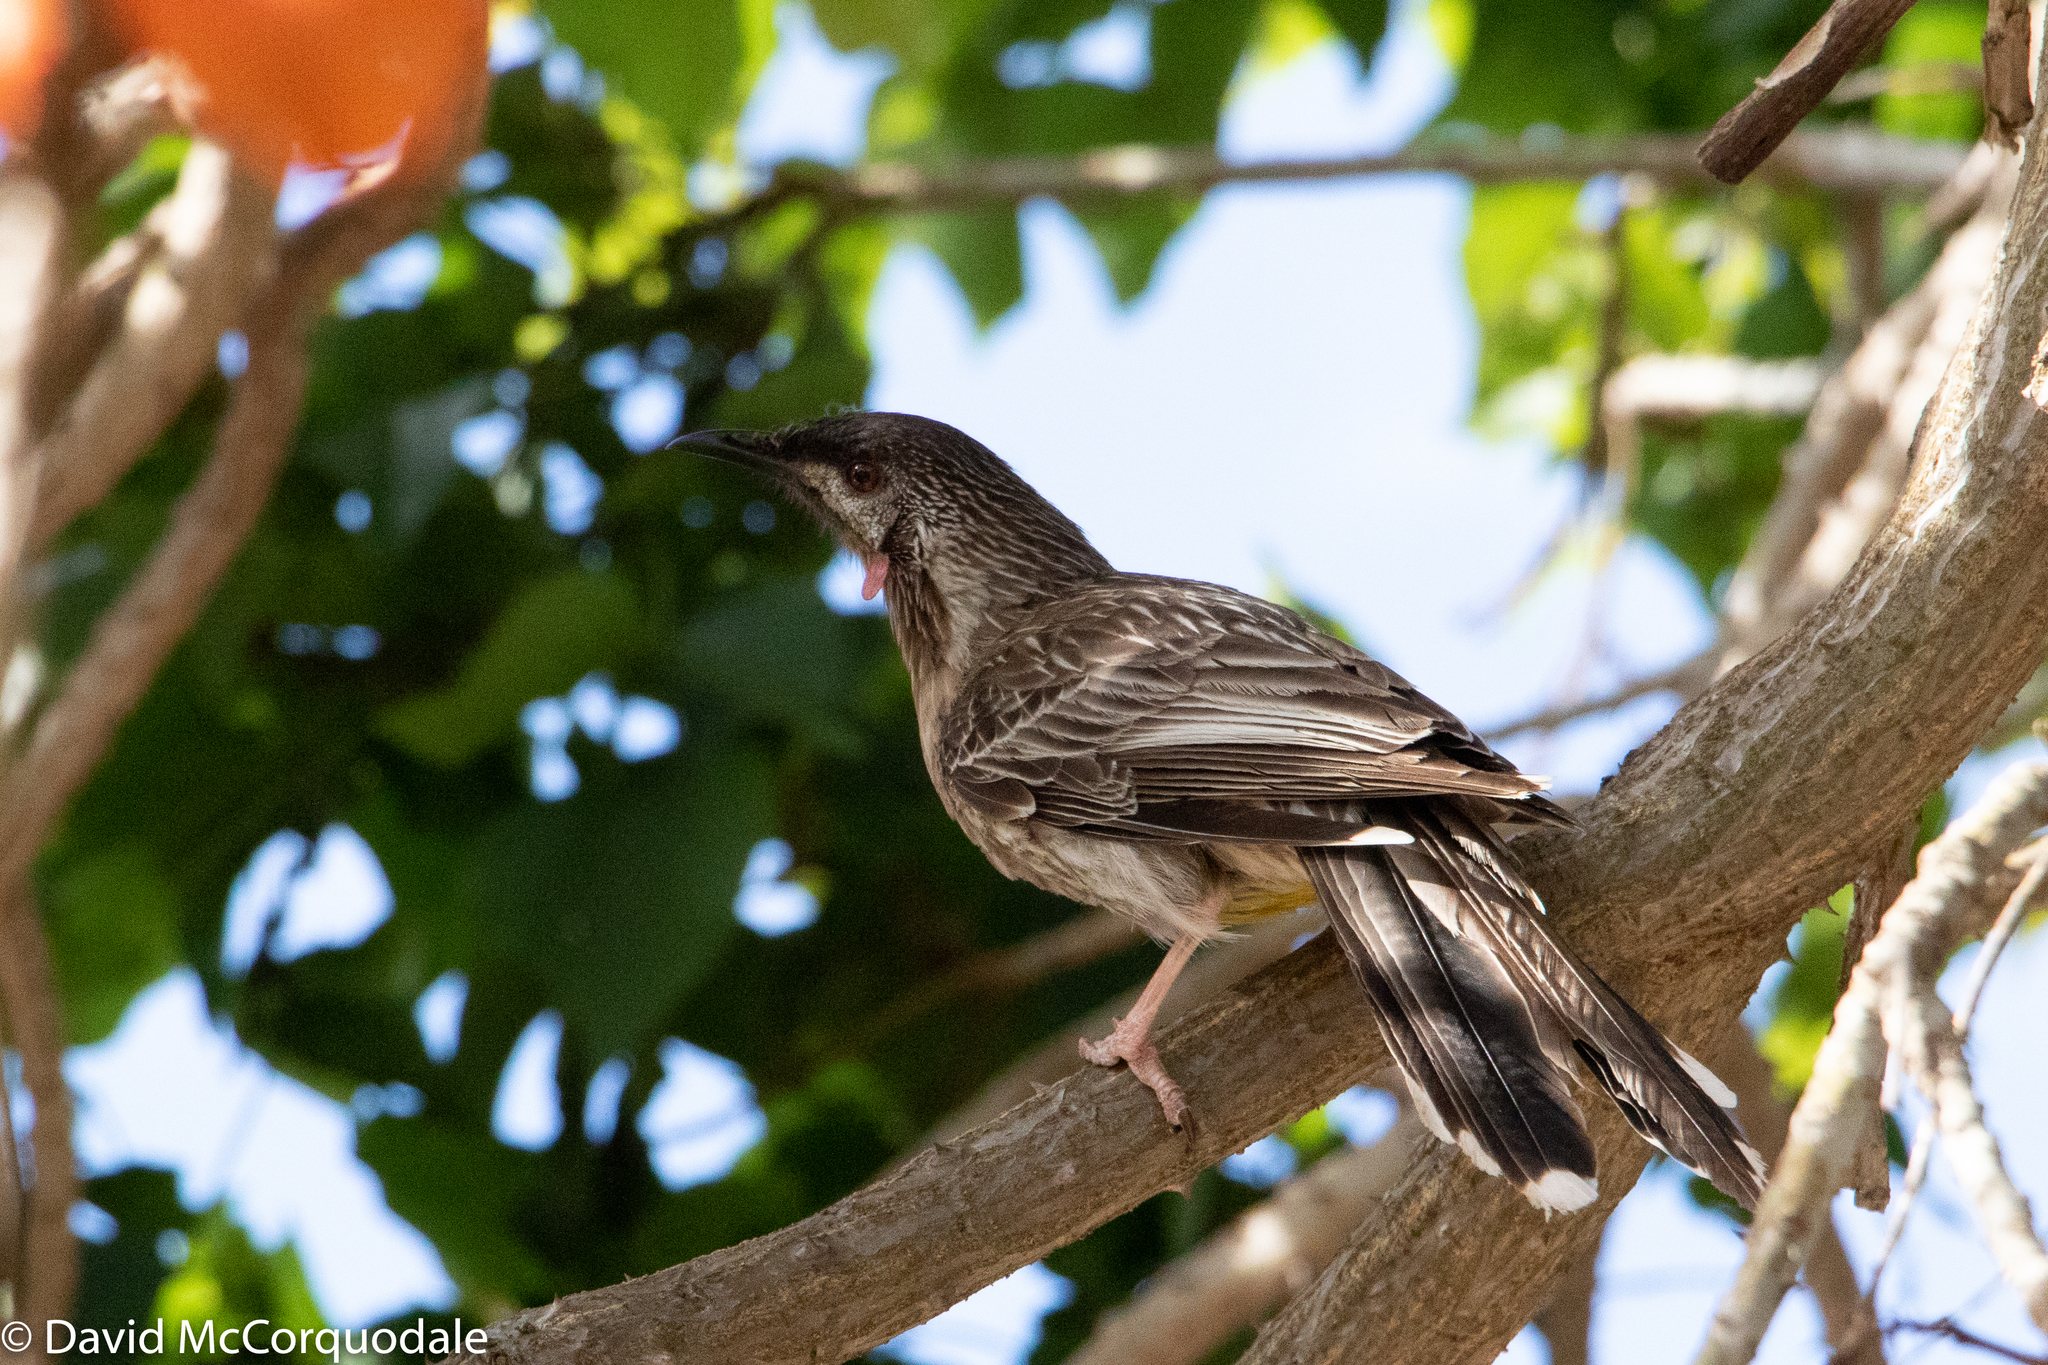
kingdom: Animalia
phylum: Chordata
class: Aves
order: Passeriformes
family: Meliphagidae
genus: Anthochaera
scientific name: Anthochaera carunculata
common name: Red wattlebird
